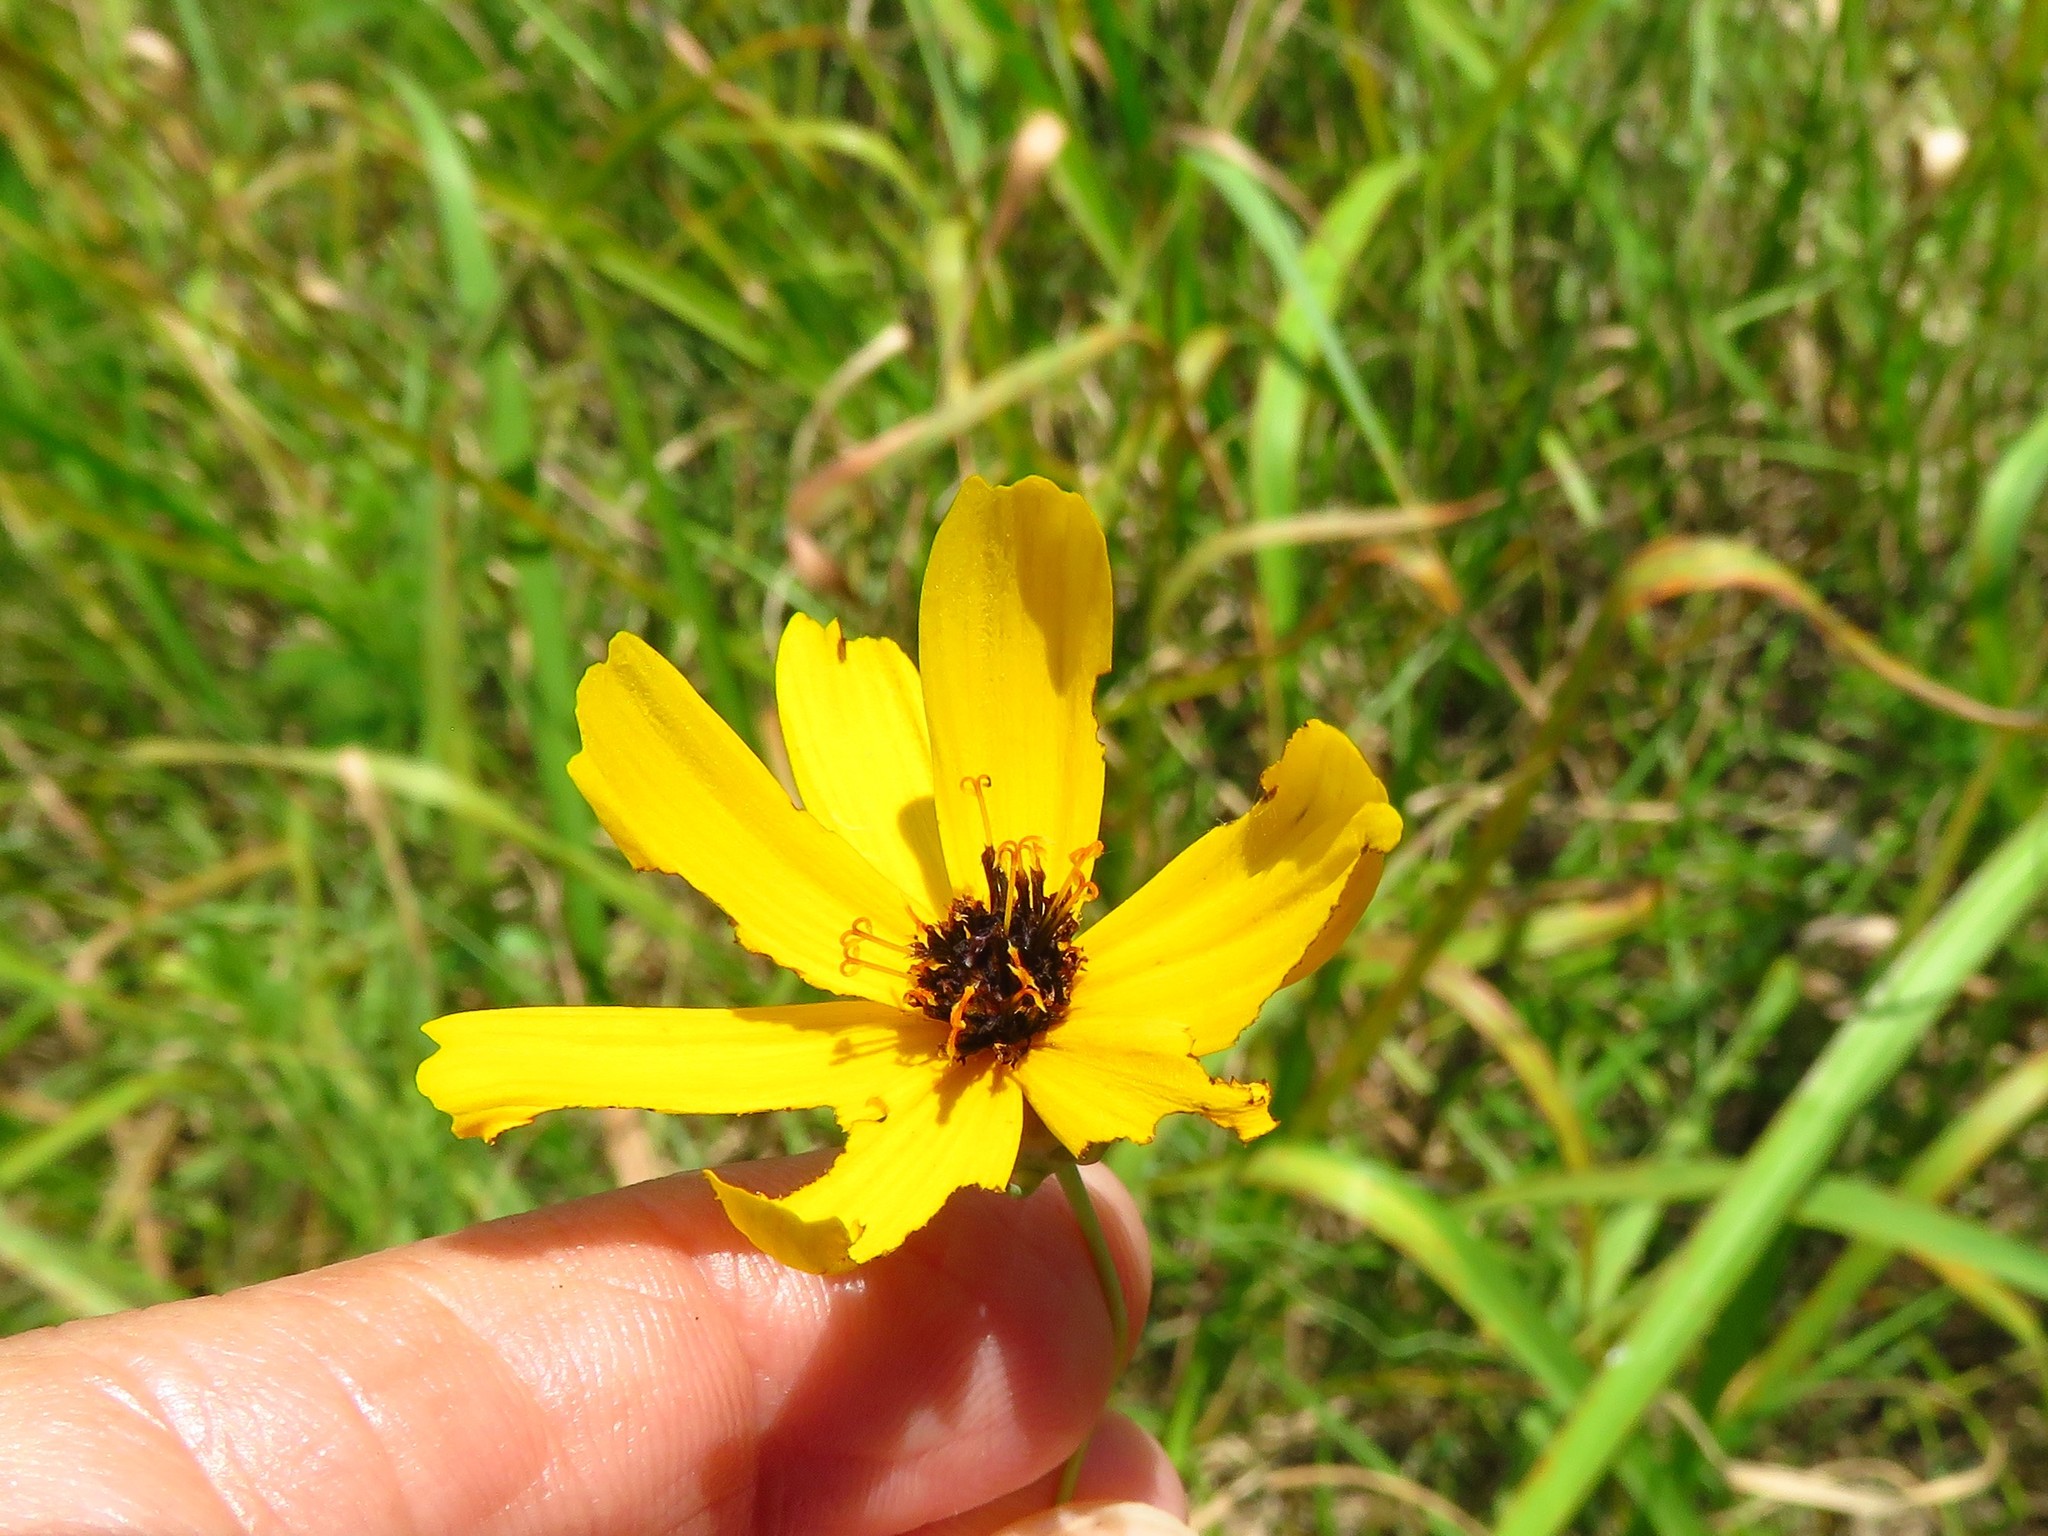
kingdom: Plantae
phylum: Tracheophyta
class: Magnoliopsida
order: Asterales
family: Asteraceae
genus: Thelesperma
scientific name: Thelesperma filifolium
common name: Stiff greenthread
